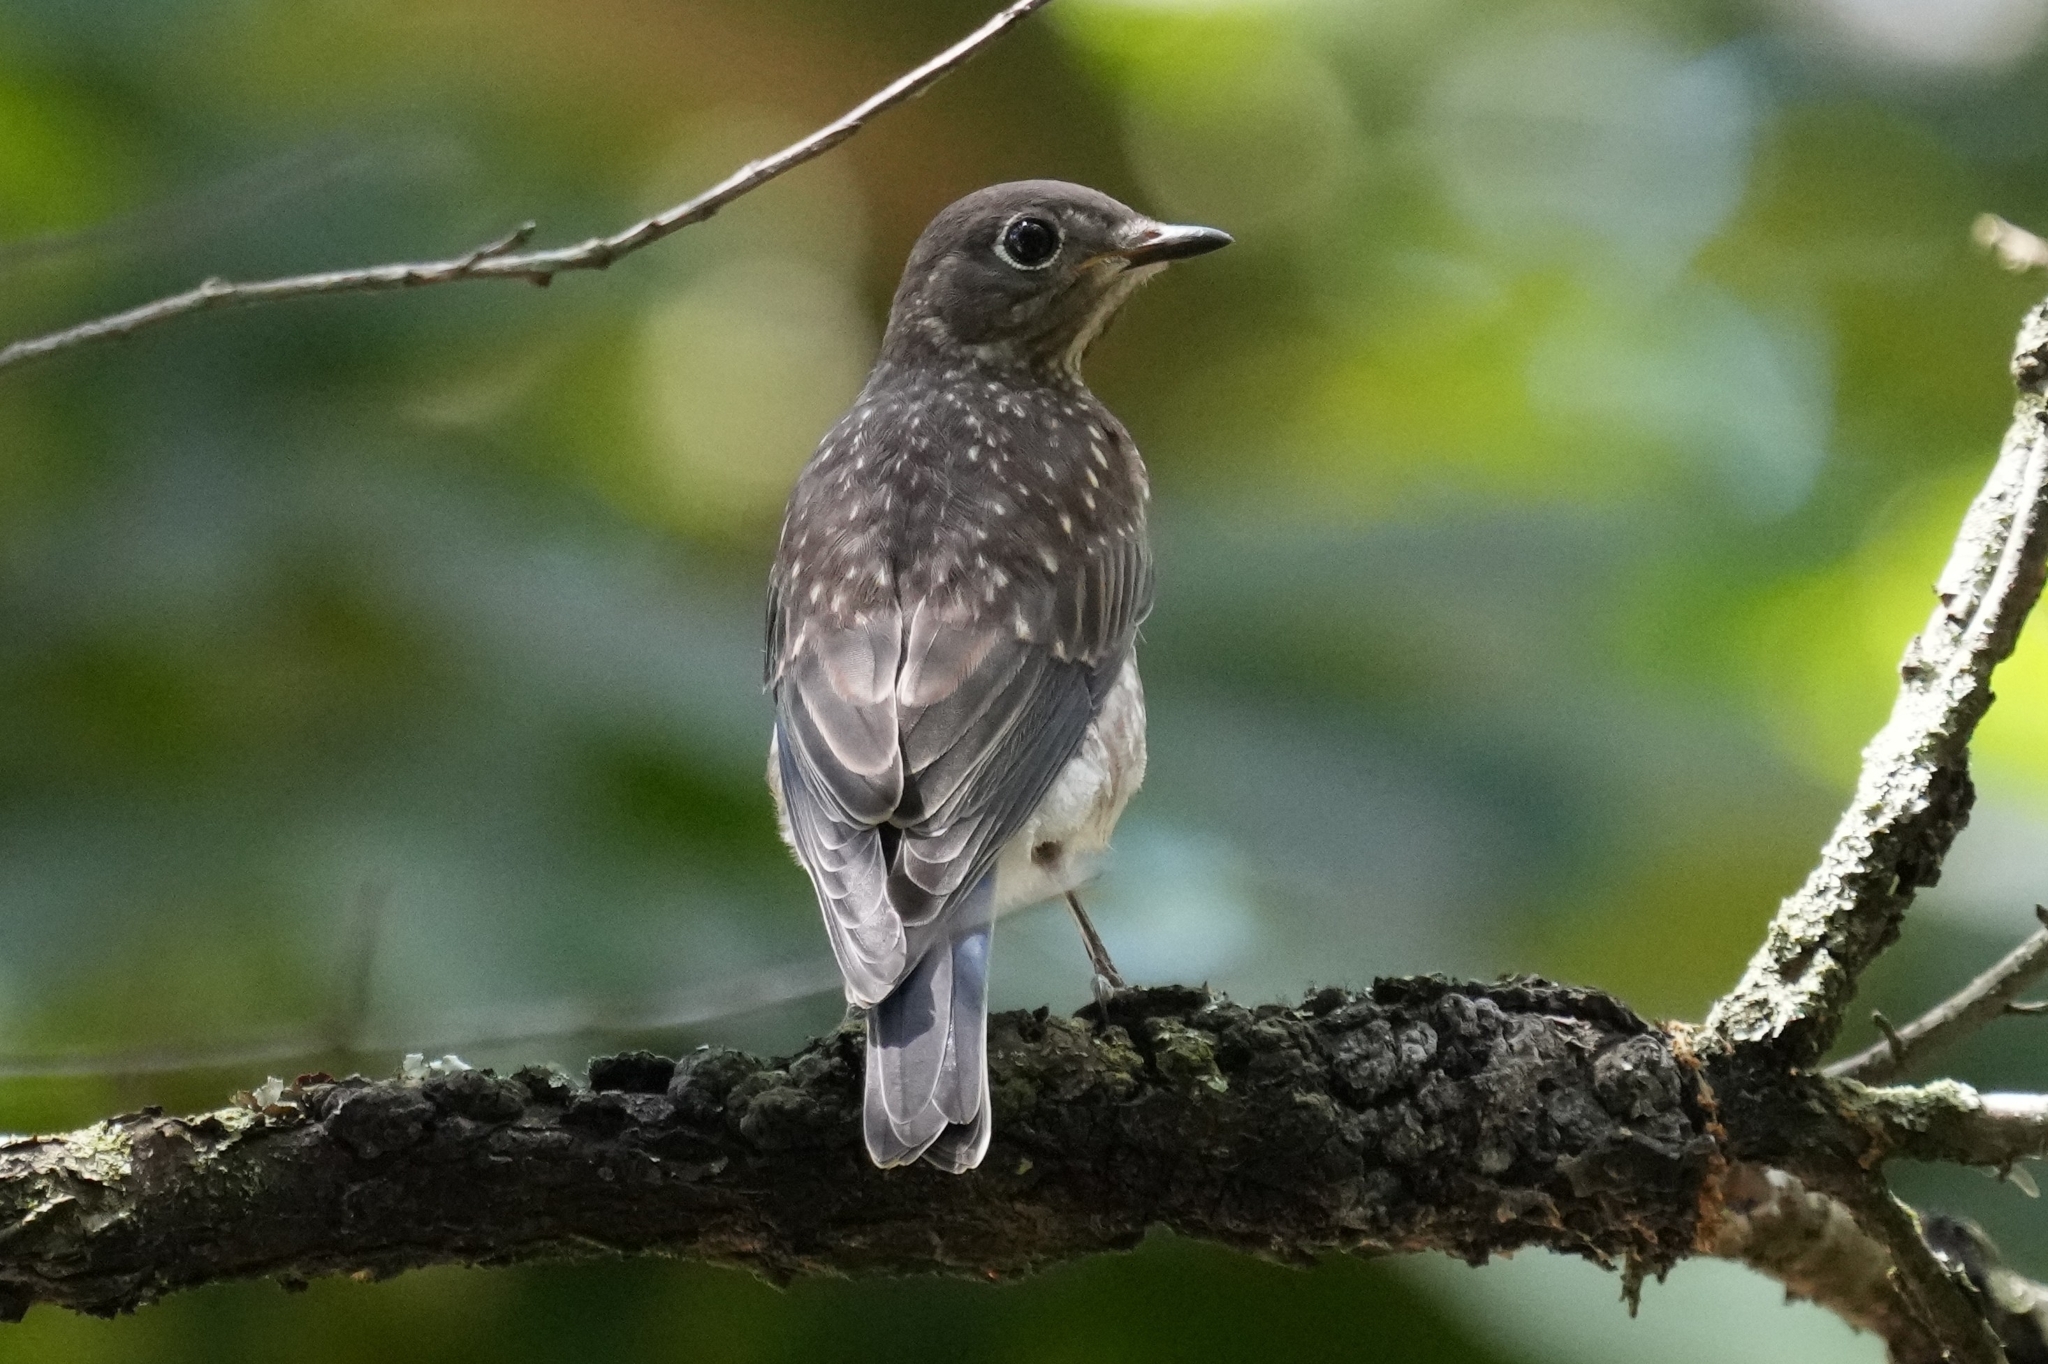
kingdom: Animalia
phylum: Chordata
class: Aves
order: Passeriformes
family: Turdidae
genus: Sialia
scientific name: Sialia sialis
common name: Eastern bluebird
